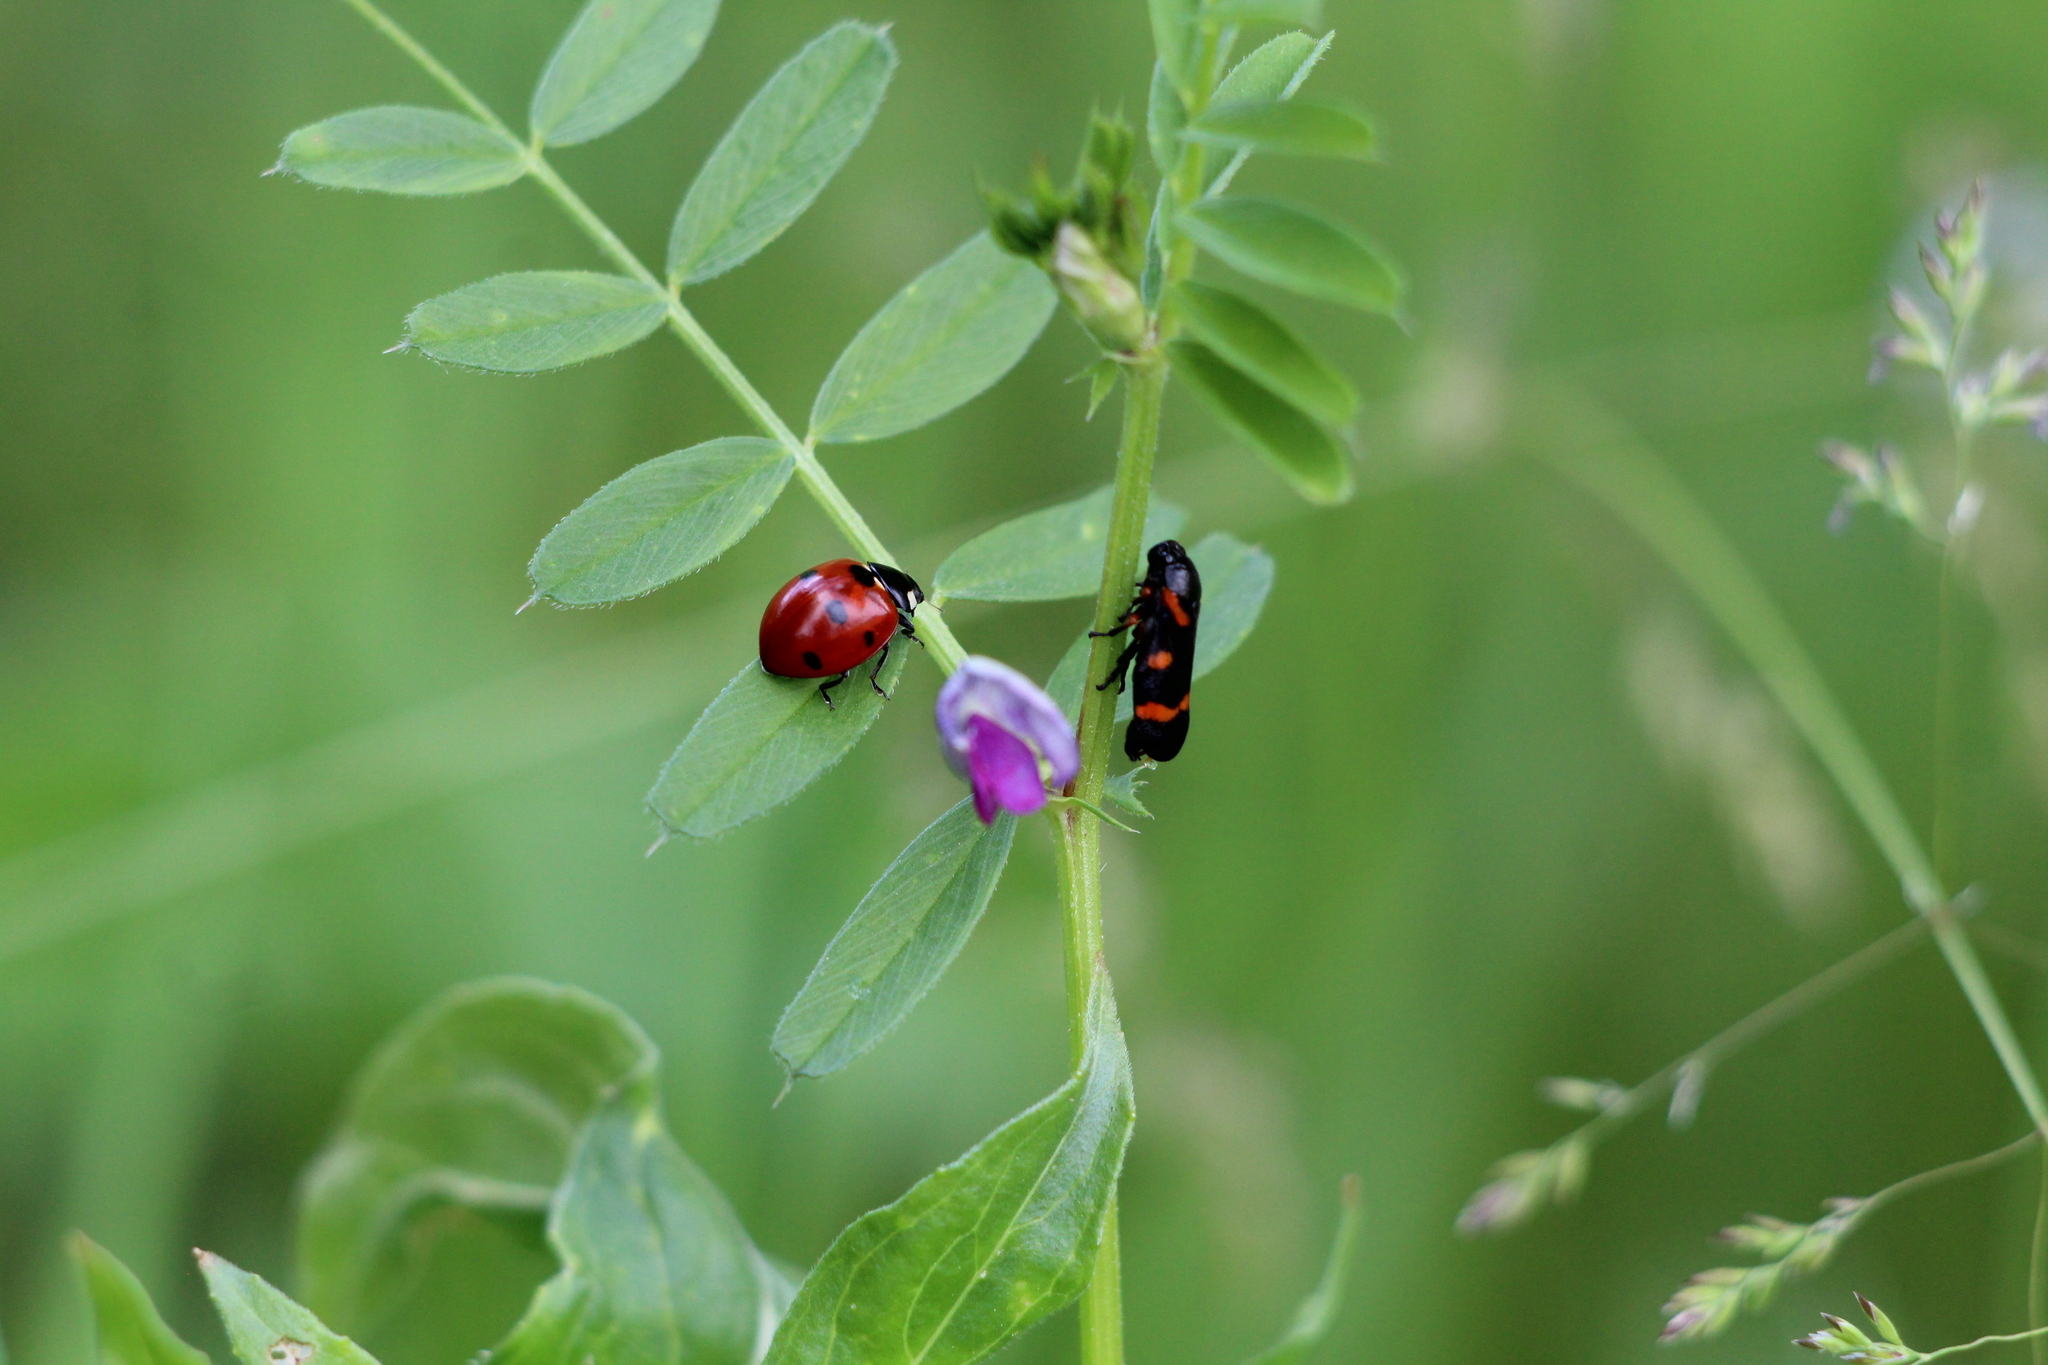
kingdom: Animalia
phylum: Arthropoda
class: Insecta
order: Coleoptera
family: Coccinellidae
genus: Coccinella
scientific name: Coccinella septempunctata
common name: Sevenspotted lady beetle
